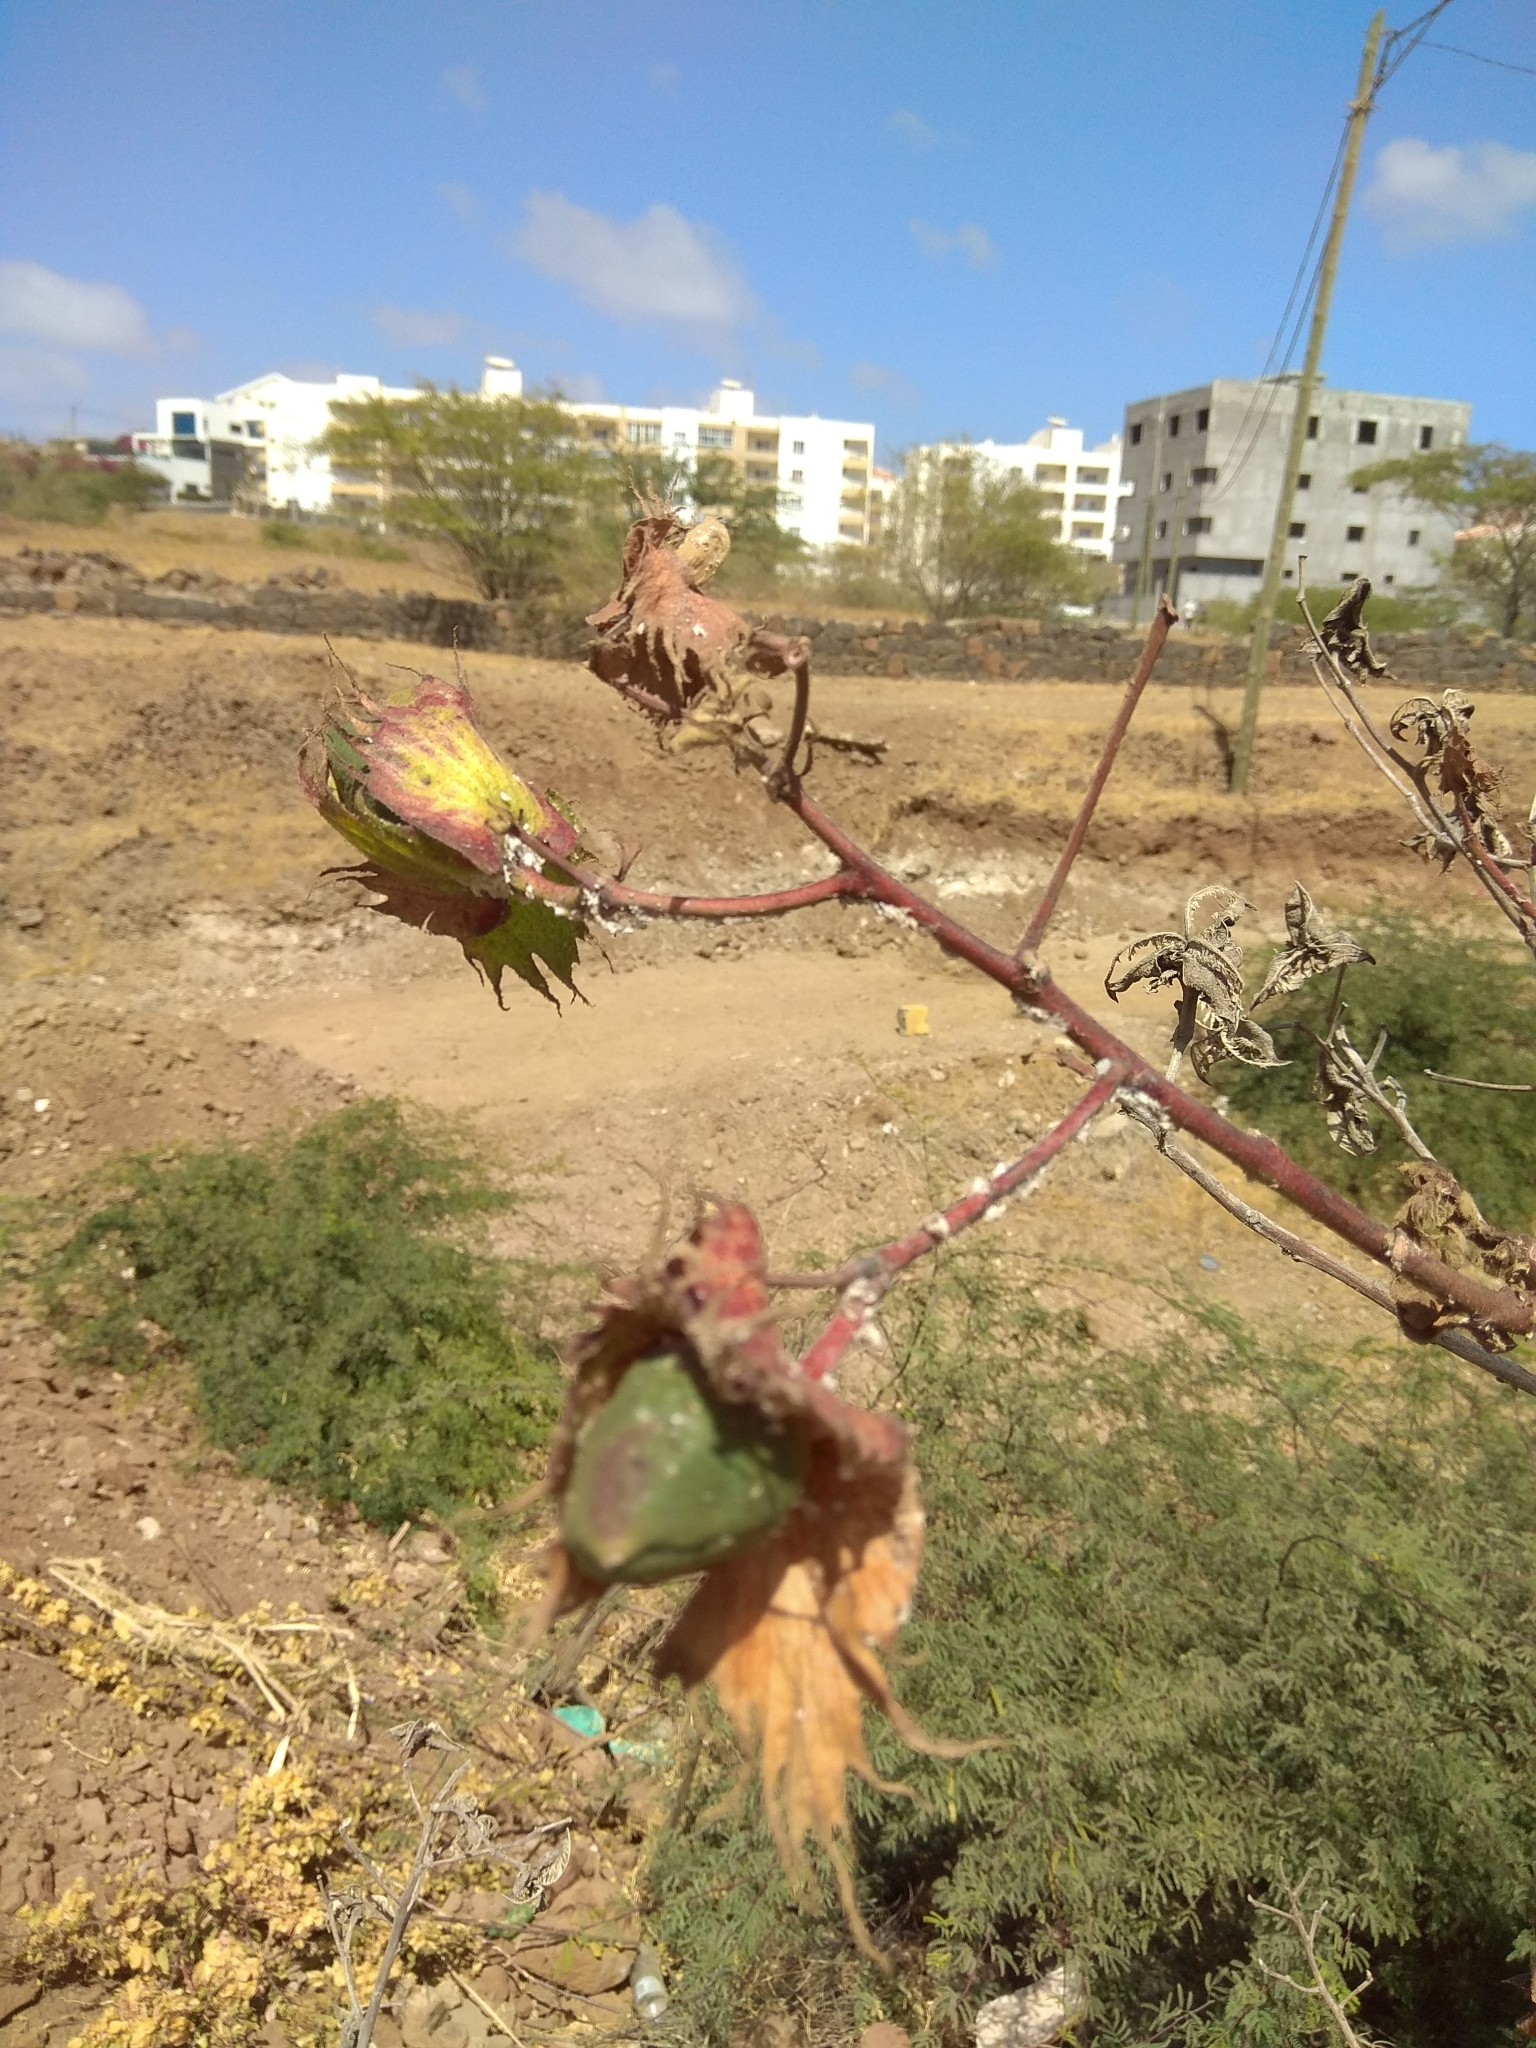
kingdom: Plantae
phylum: Tracheophyta
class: Magnoliopsida
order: Malvales
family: Malvaceae
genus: Gossypium
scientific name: Gossypium hirsutum
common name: Cotton
